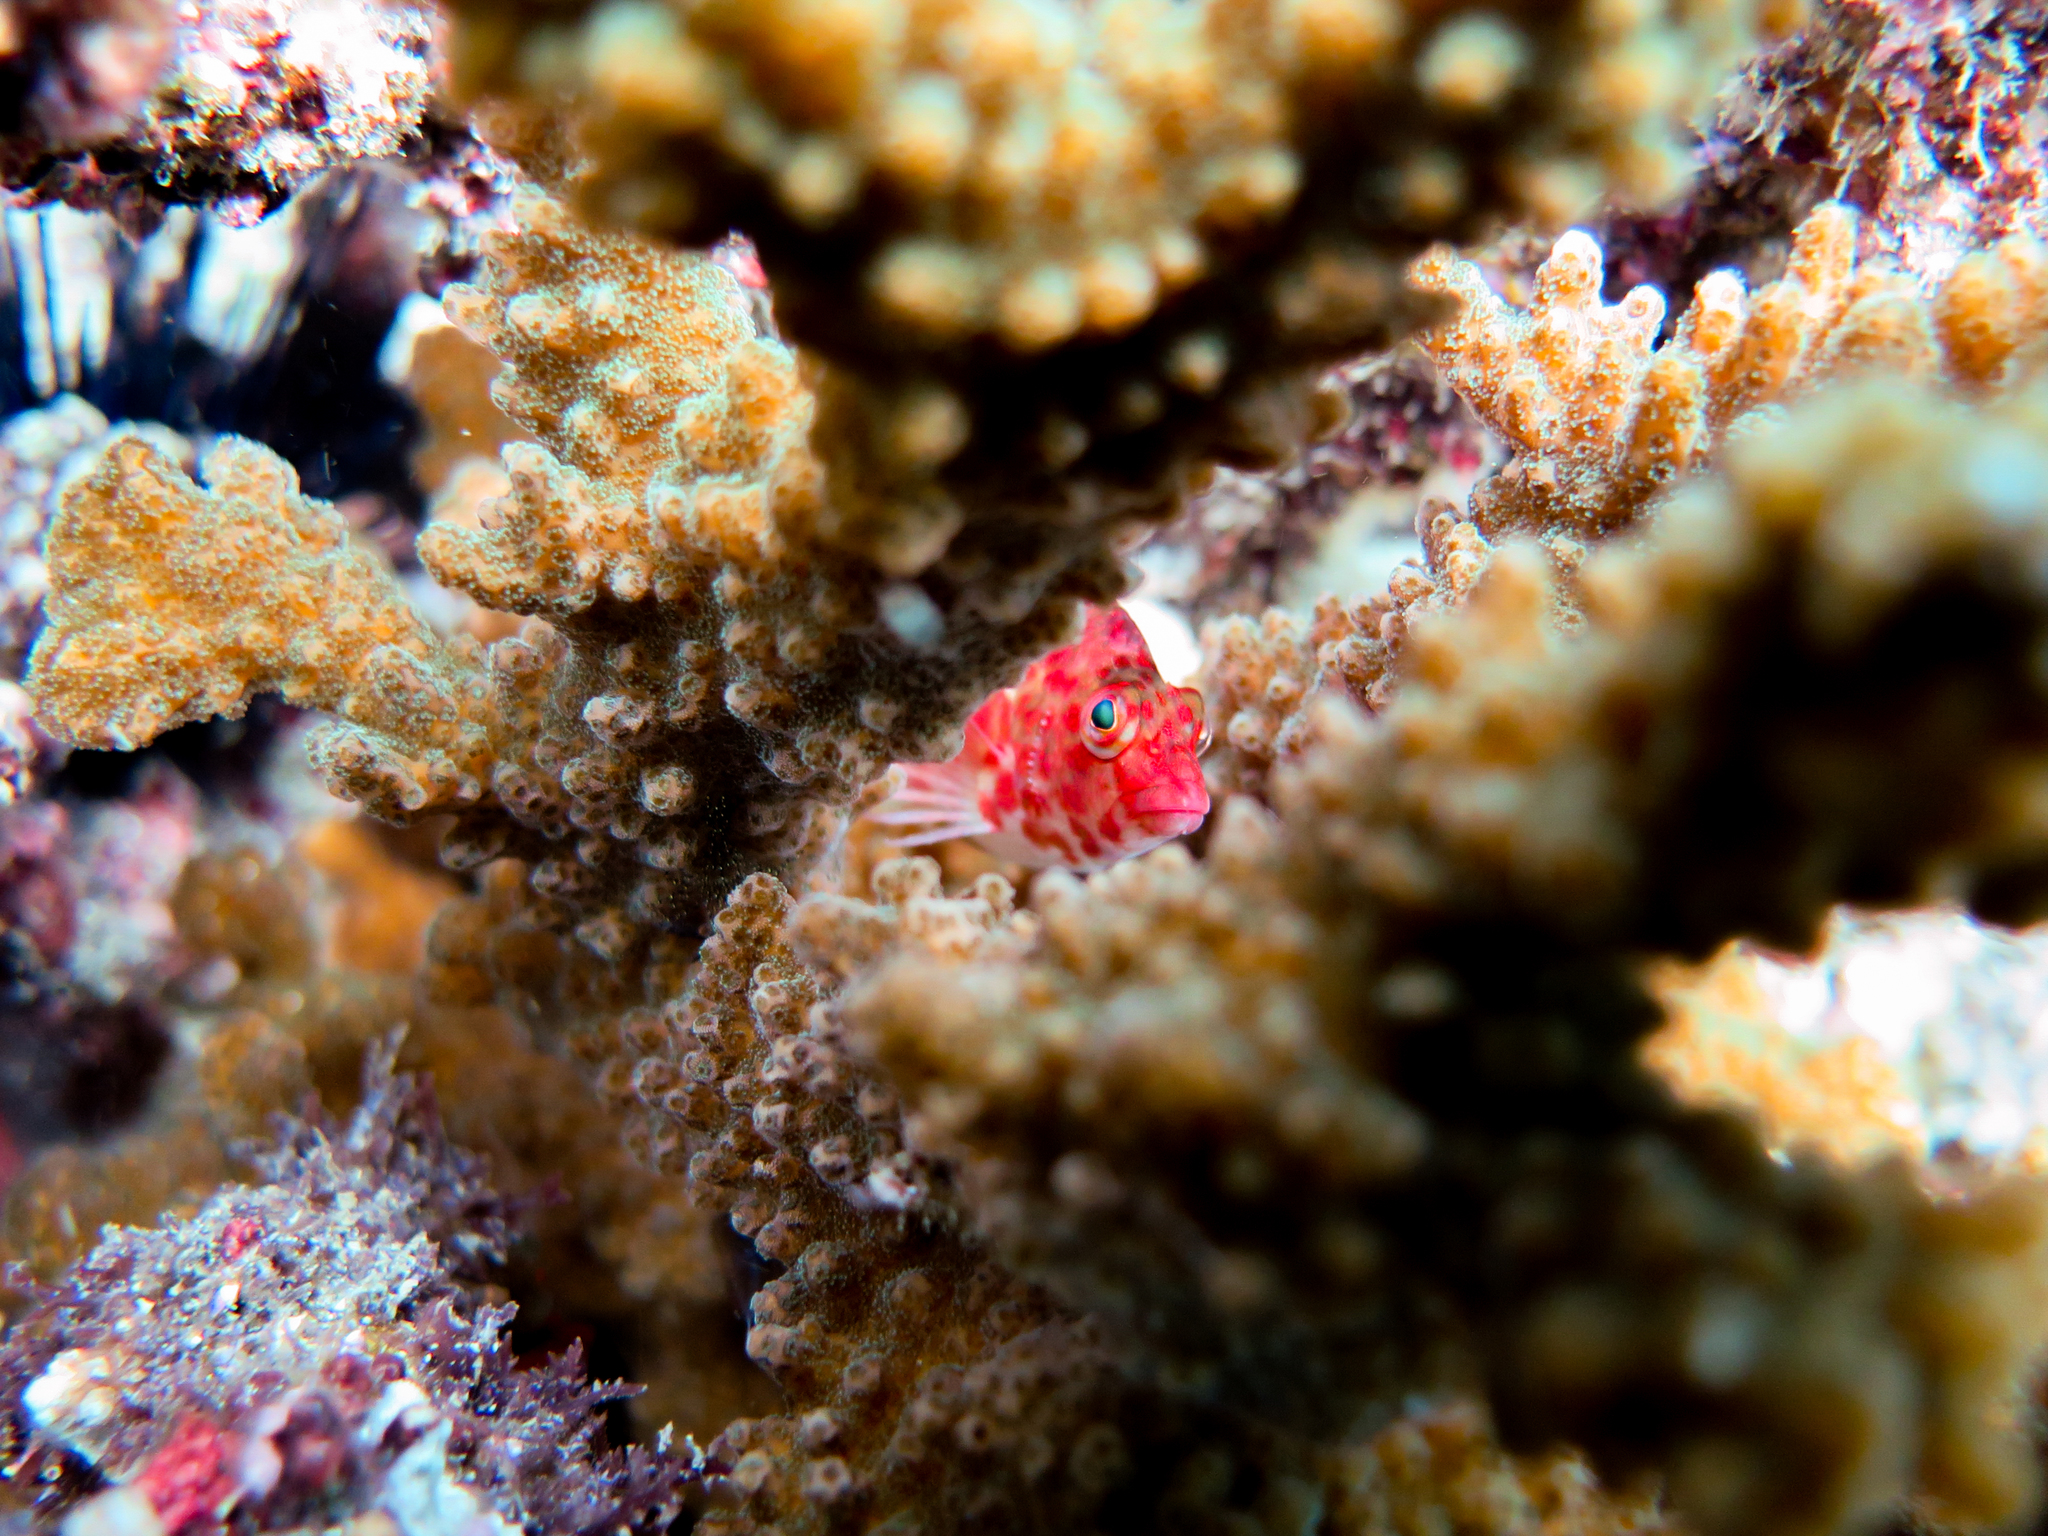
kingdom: Animalia
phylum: Chordata
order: Perciformes
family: Cirrhitidae
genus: Cirrhitichthys
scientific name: Cirrhitichthys oxycephalus
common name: Spotted hawkfish
